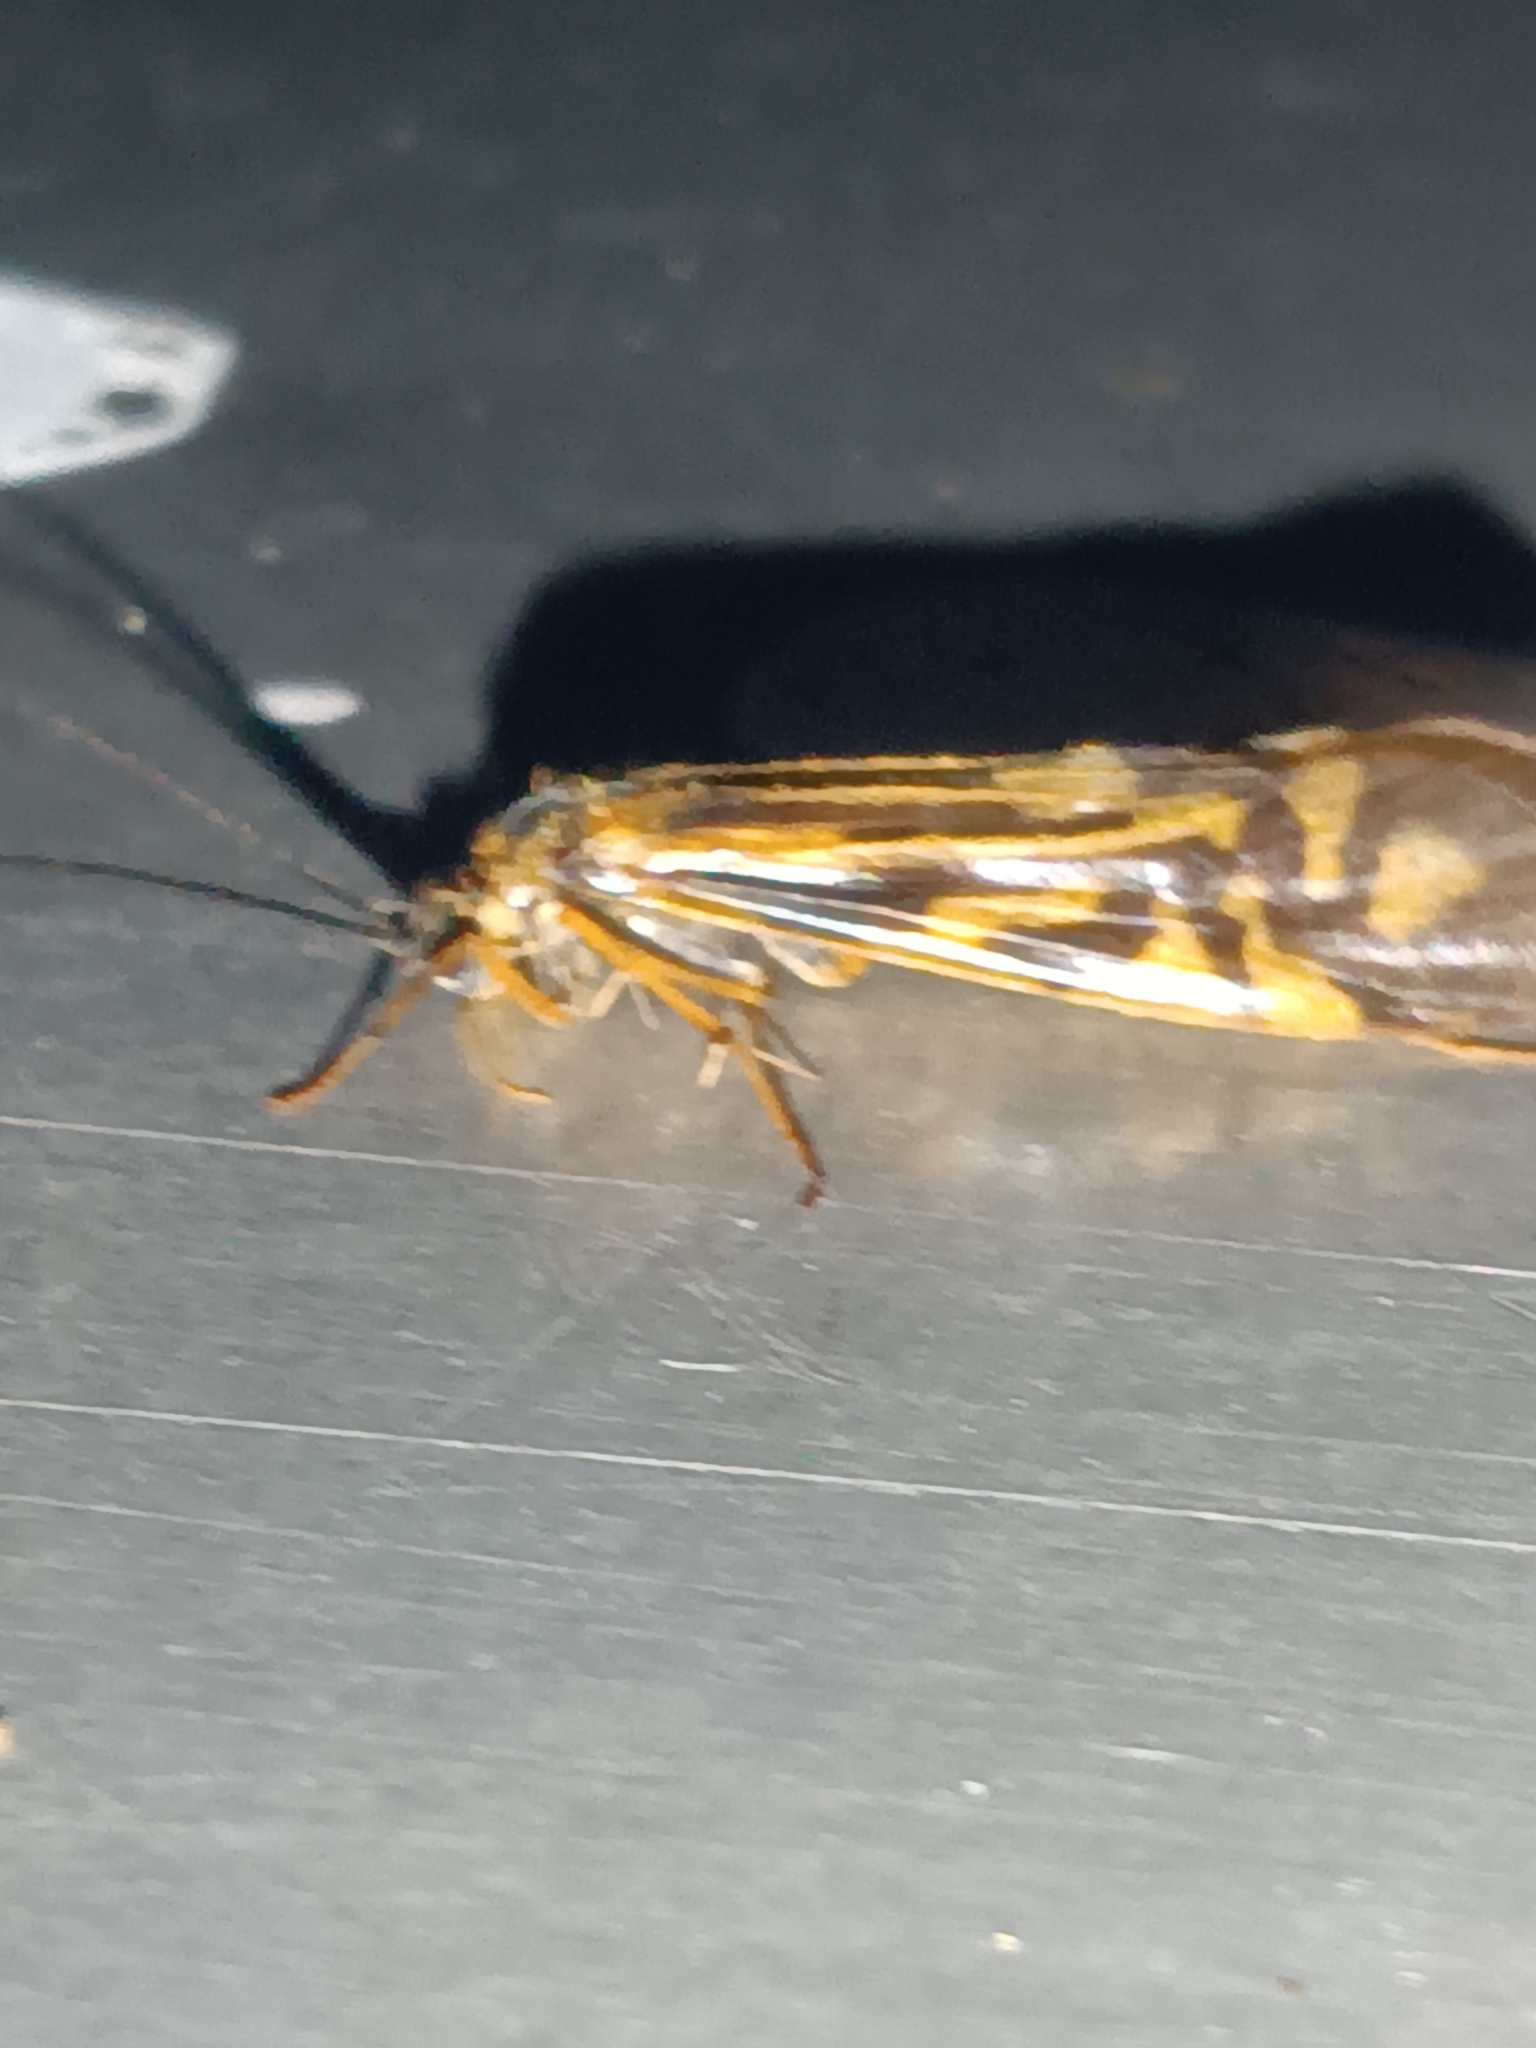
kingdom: Animalia
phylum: Arthropoda
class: Insecta
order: Trichoptera
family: Hydropsychidae
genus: Macrostemum
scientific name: Macrostemum zebratum
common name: Zebra caddisfly
